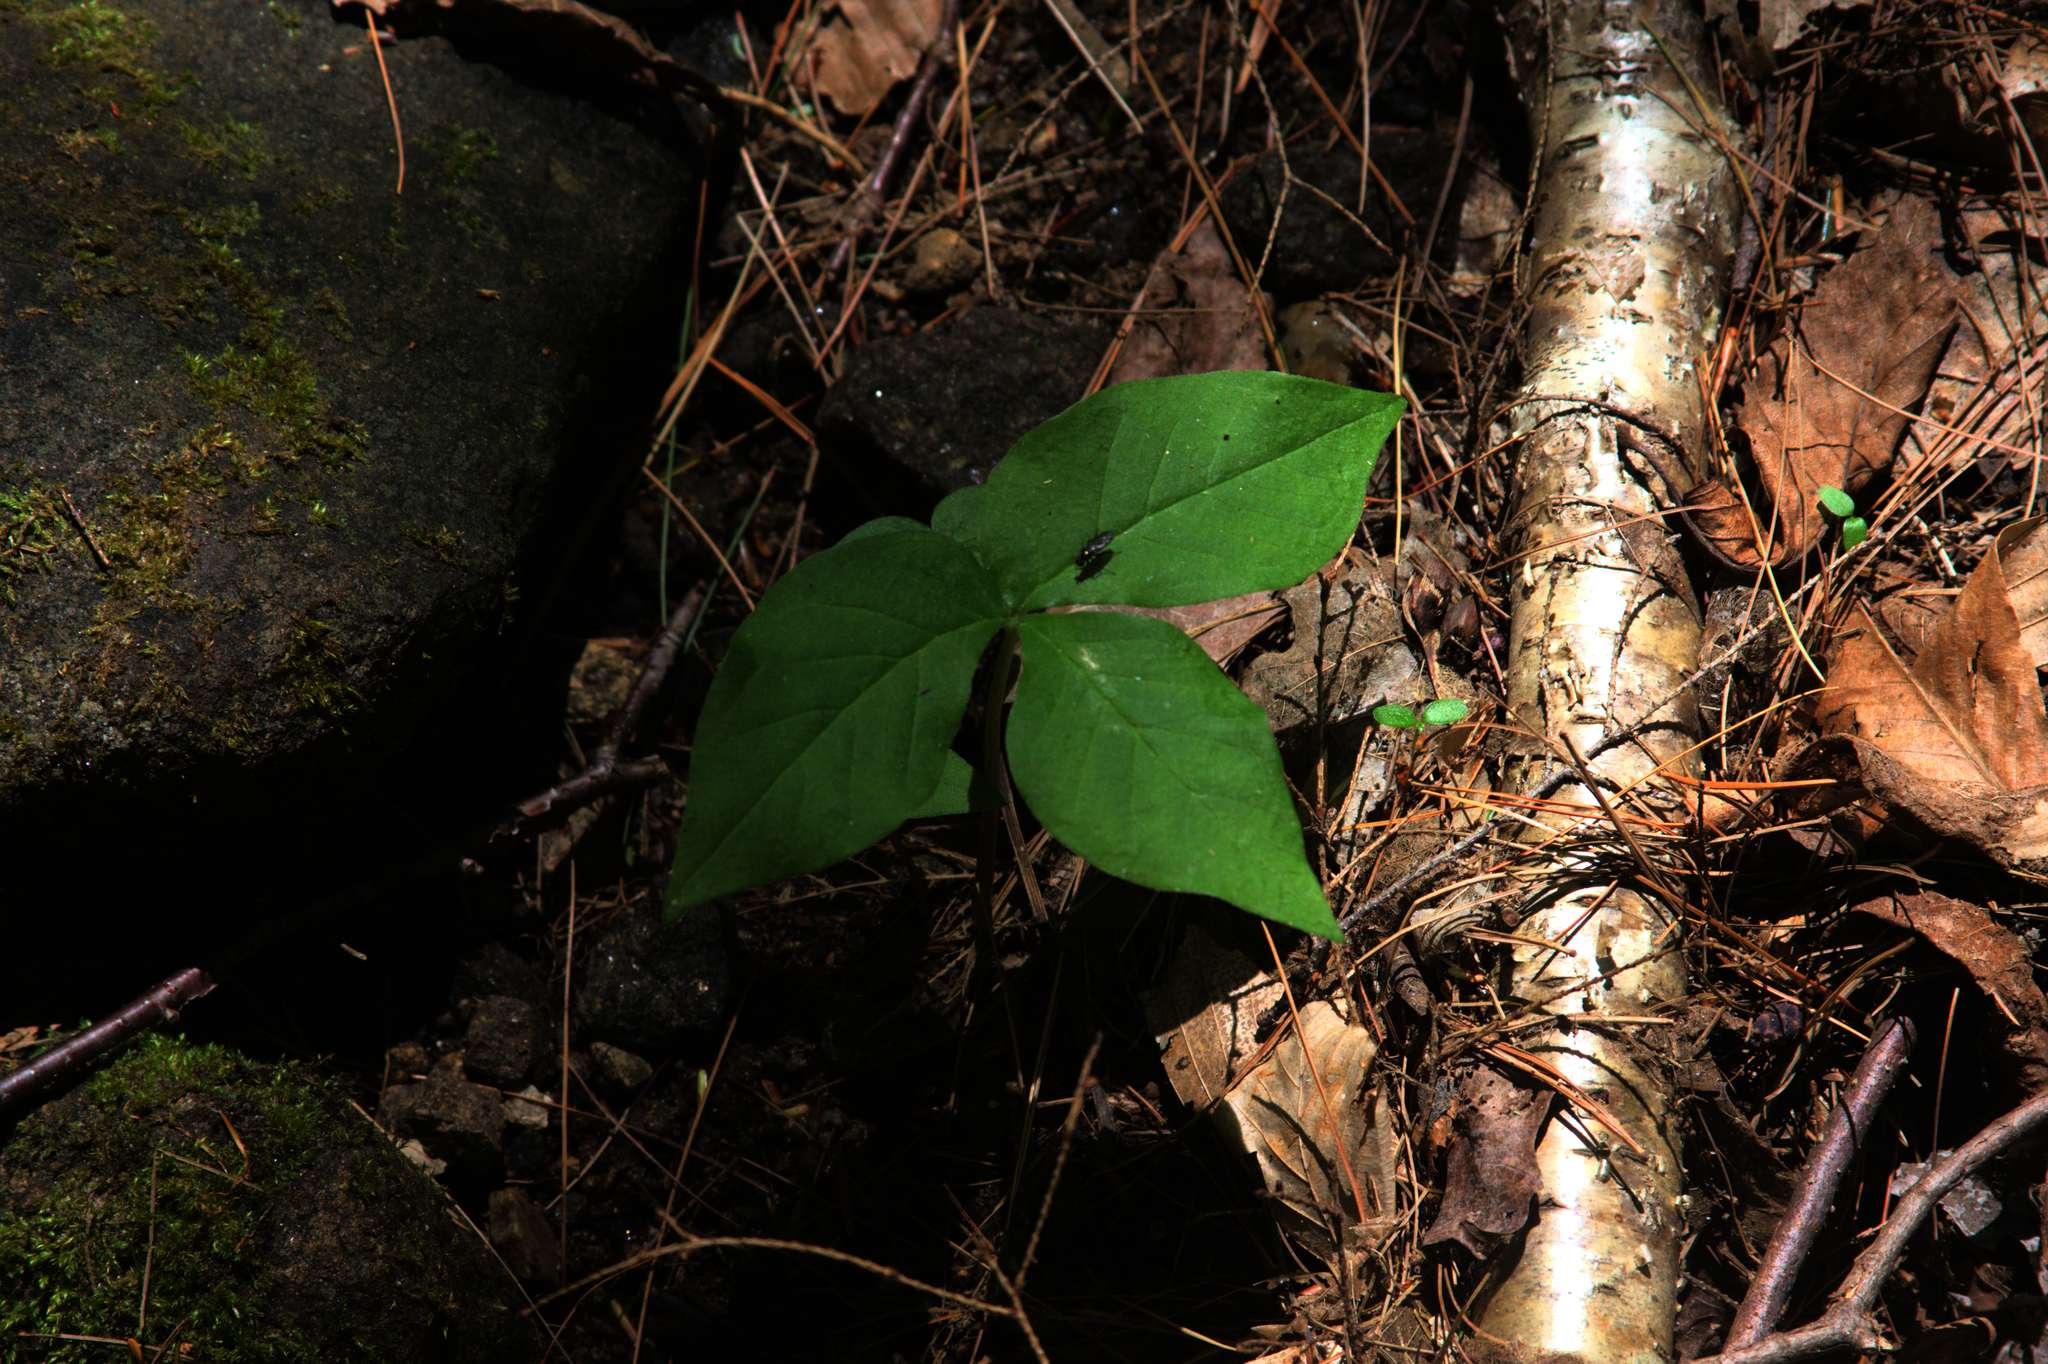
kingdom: Plantae
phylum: Tracheophyta
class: Liliopsida
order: Alismatales
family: Araceae
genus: Arisaema
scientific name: Arisaema triphyllum
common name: Jack-in-the-pulpit
